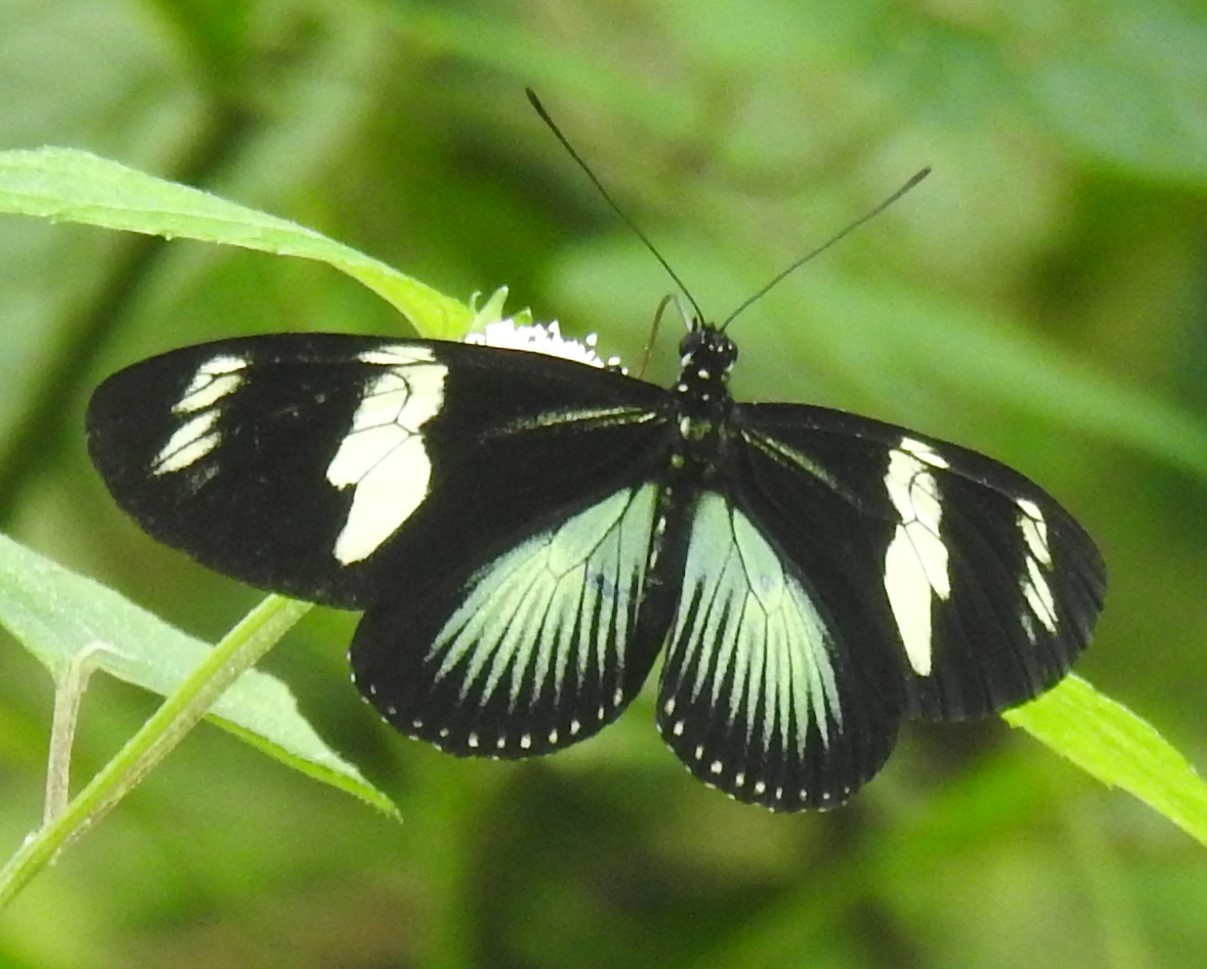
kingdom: Animalia
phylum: Arthropoda
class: Insecta
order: Lepidoptera
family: Nymphalidae
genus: Heliconius
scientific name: Heliconius doris
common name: Doris longwing
